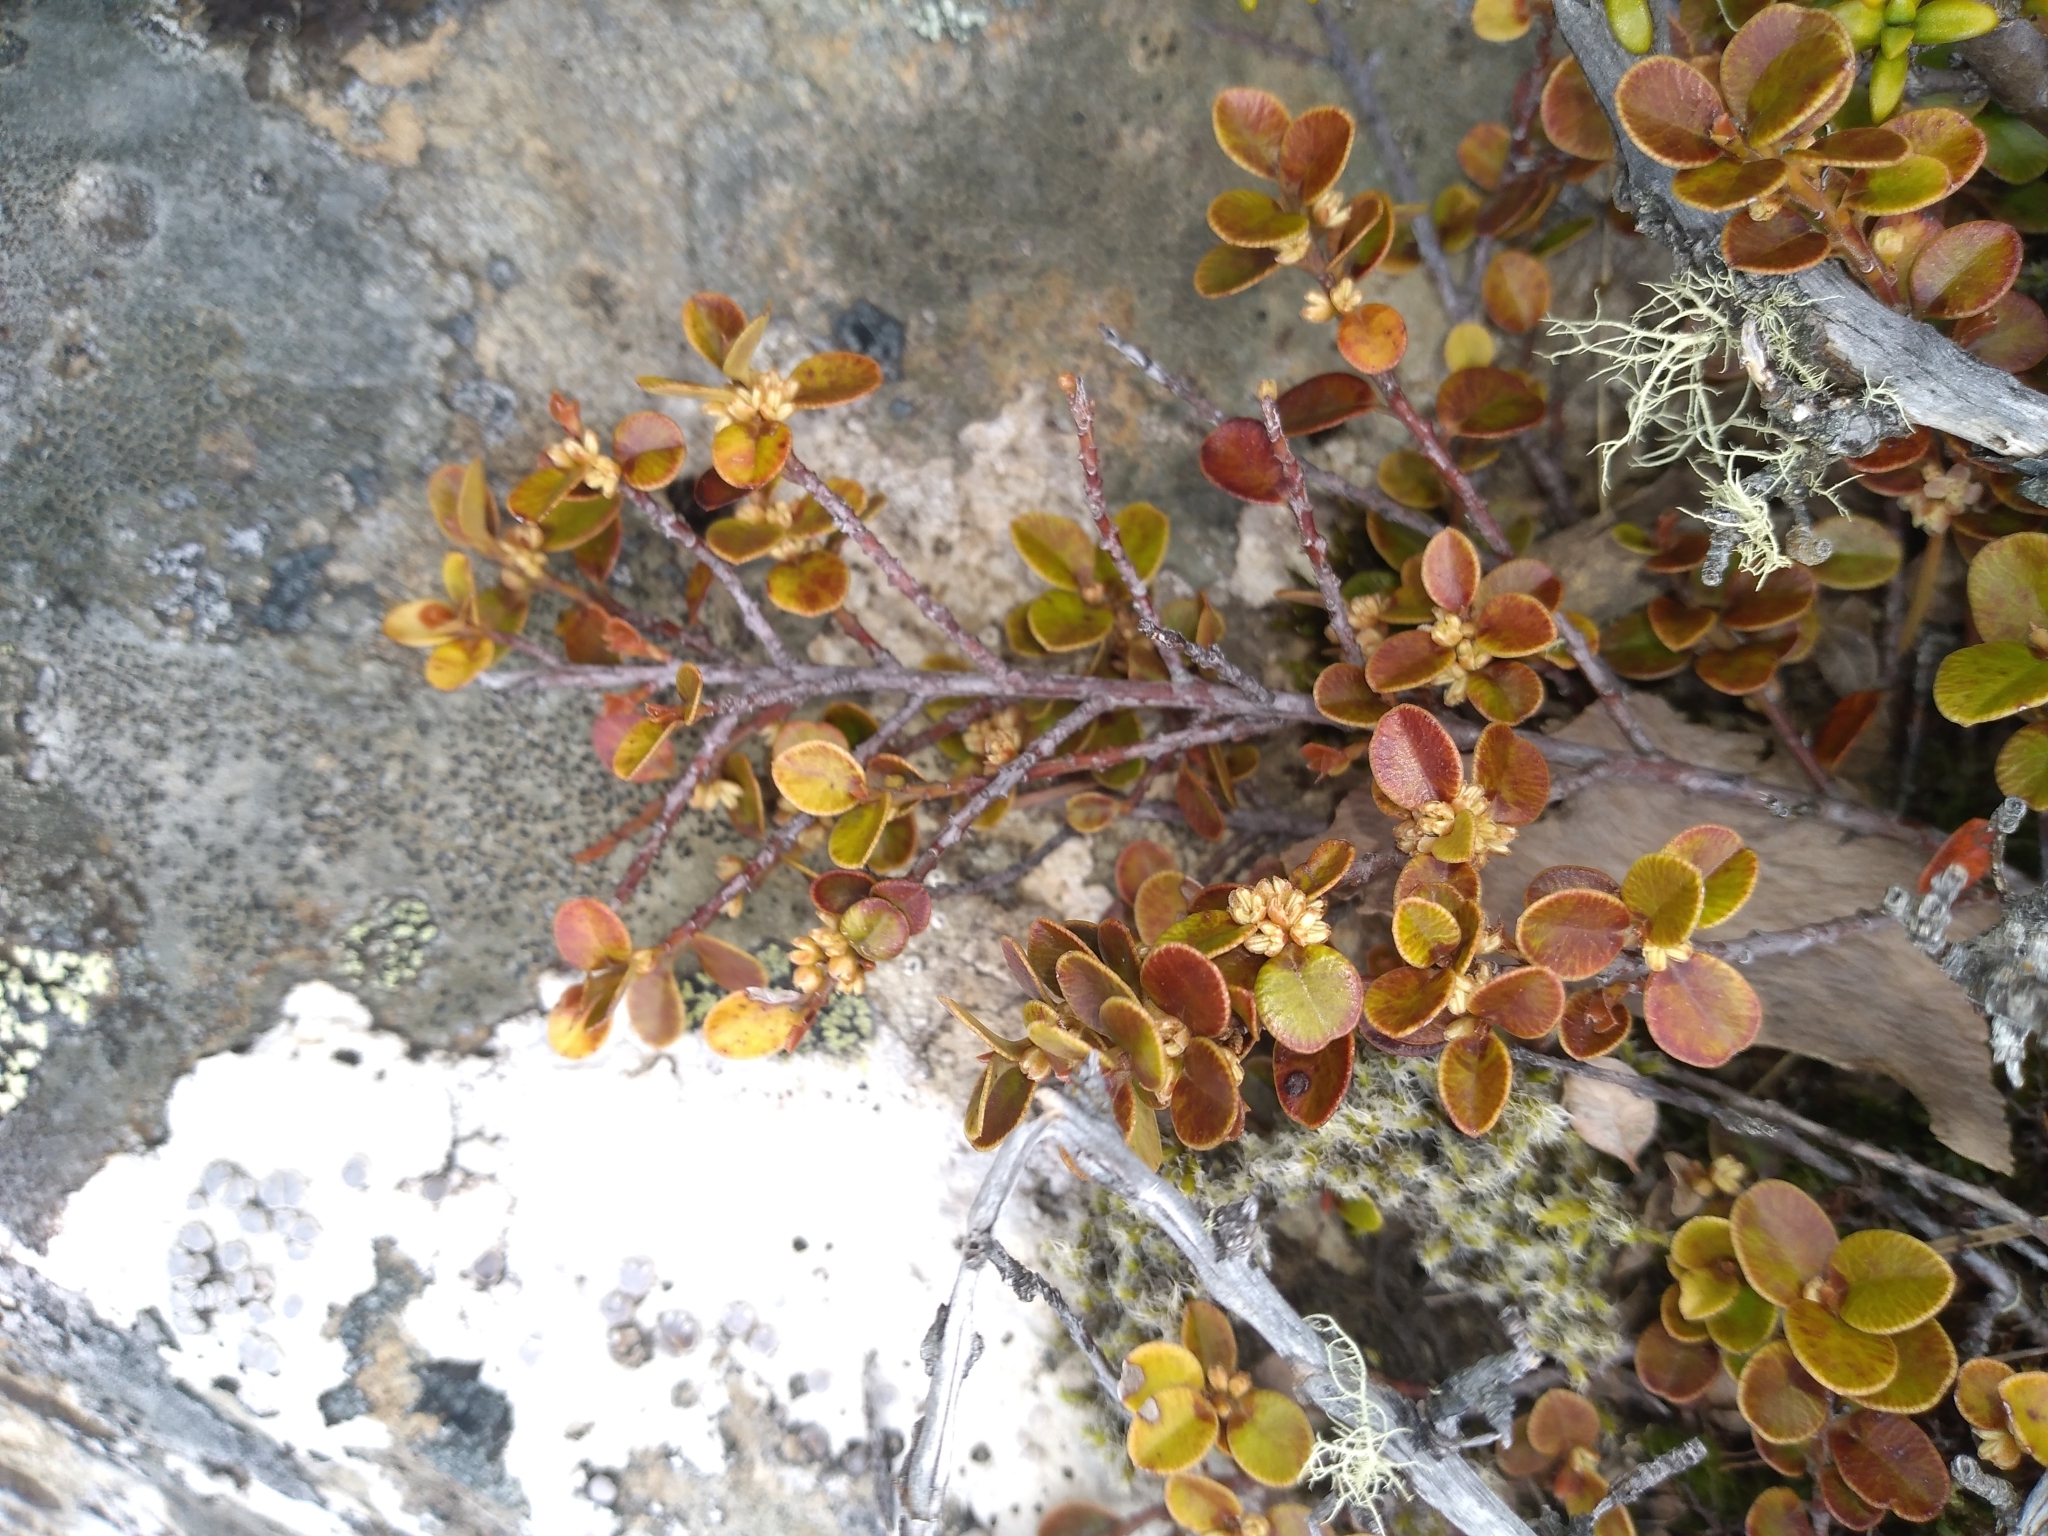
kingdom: Plantae
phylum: Tracheophyta
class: Magnoliopsida
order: Ericales
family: Primulaceae
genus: Myrsine
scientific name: Myrsine nummularia
